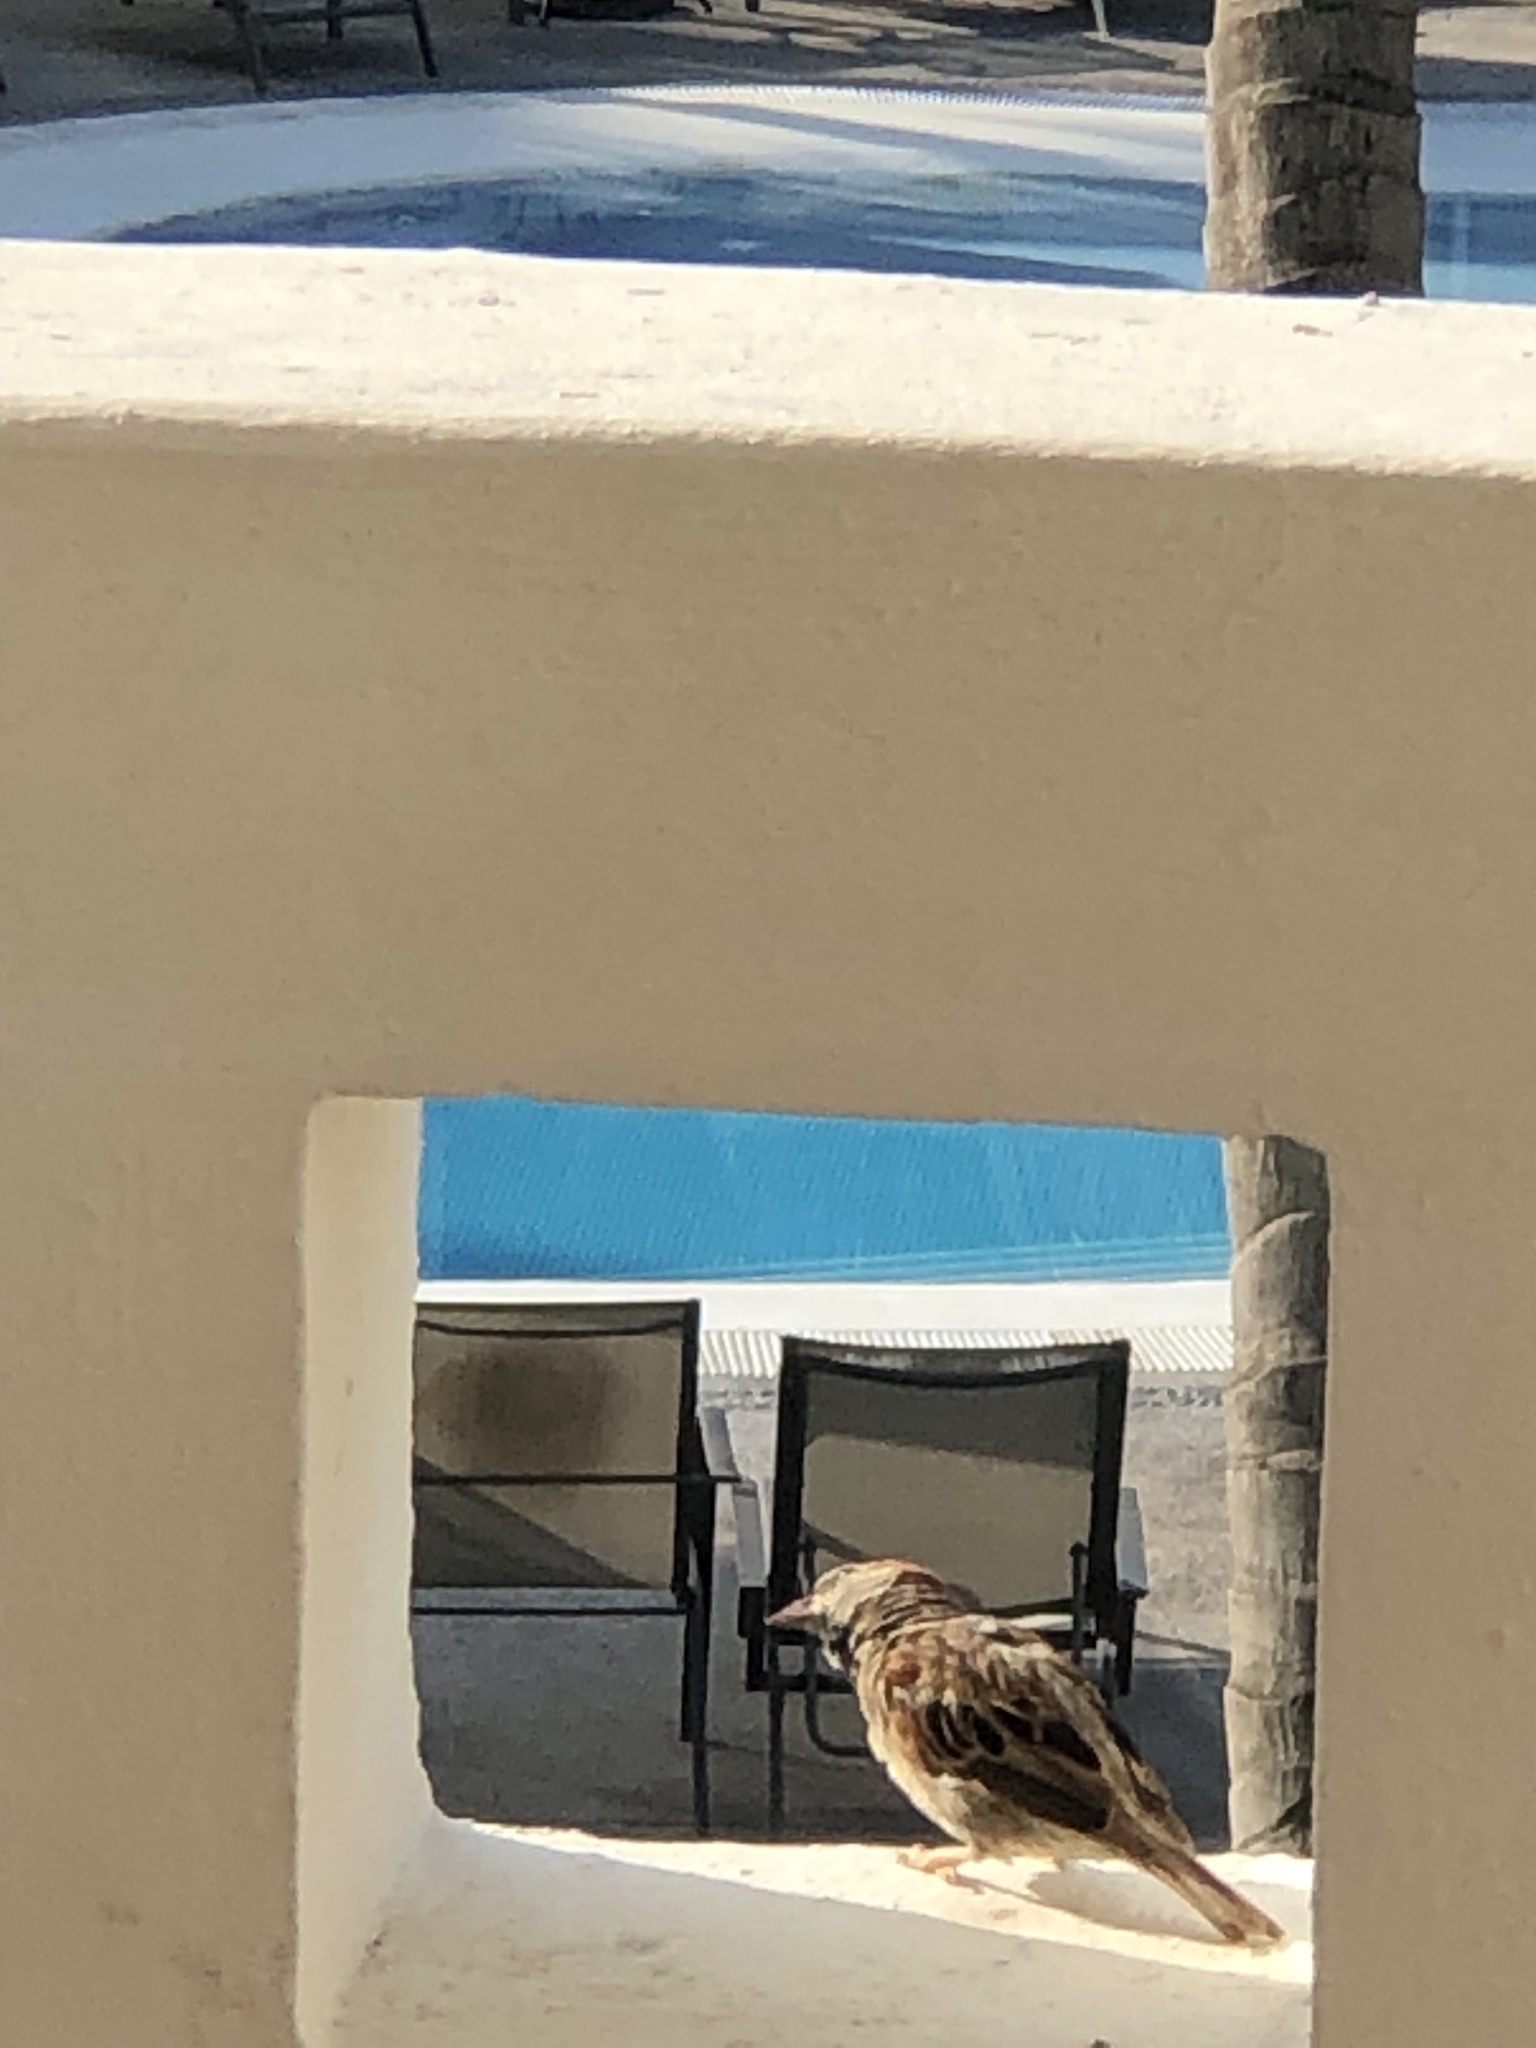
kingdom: Animalia
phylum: Chordata
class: Aves
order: Passeriformes
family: Passeridae
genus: Passer
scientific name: Passer domesticus
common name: House sparrow
